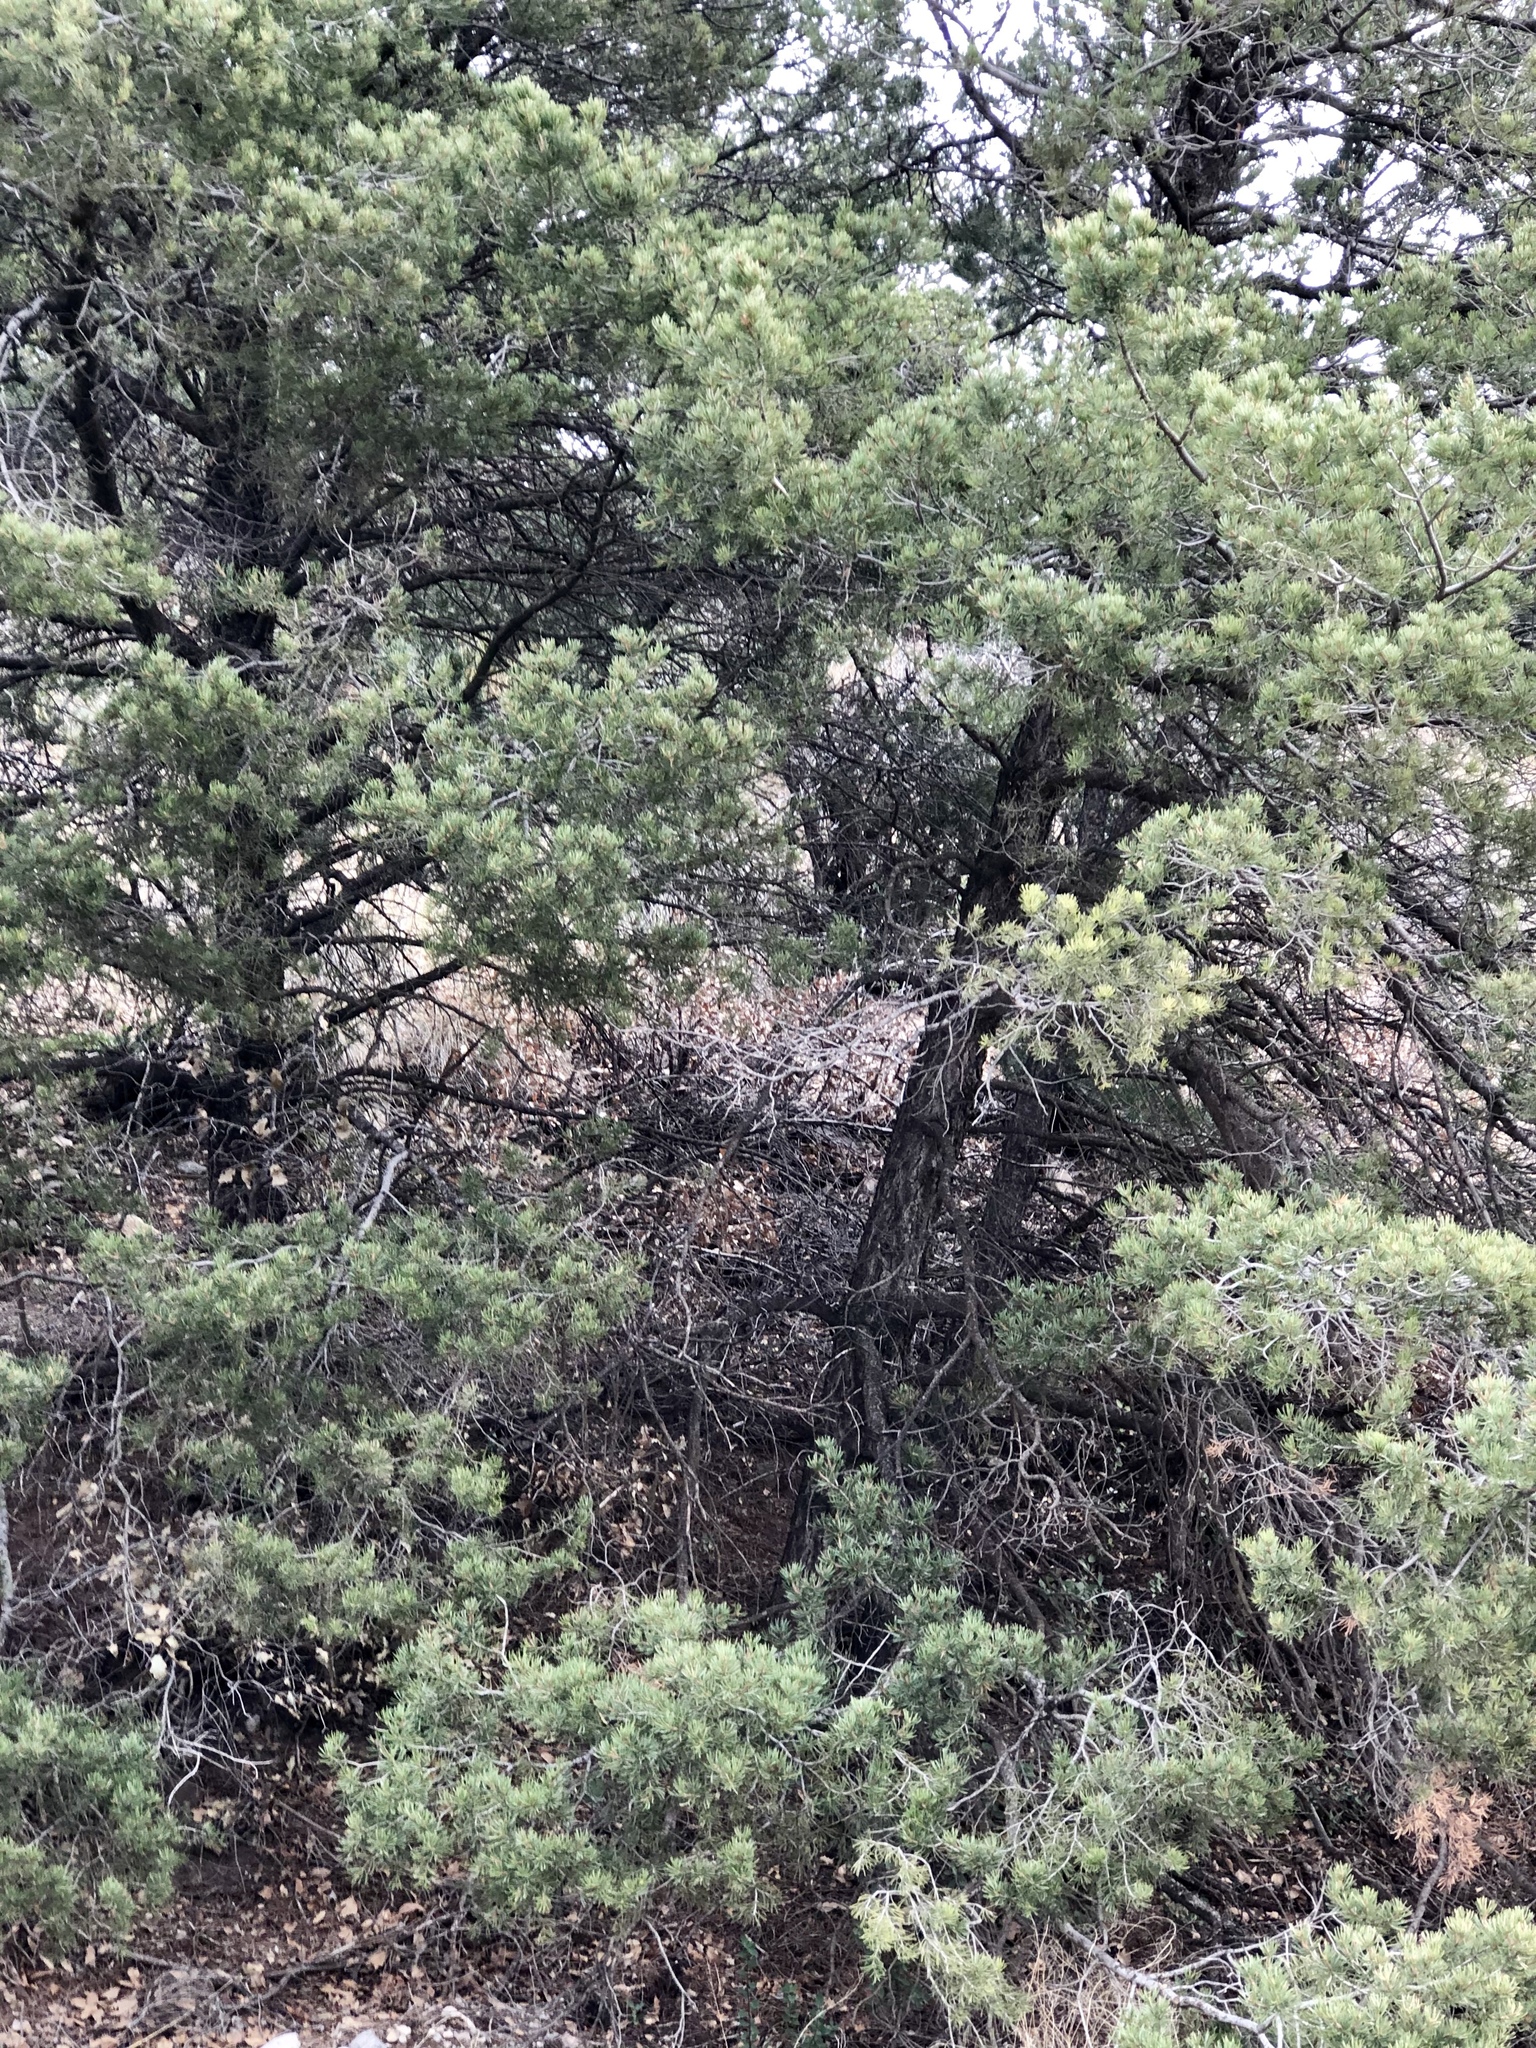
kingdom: Plantae
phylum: Tracheophyta
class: Pinopsida
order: Pinales
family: Pinaceae
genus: Pinus
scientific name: Pinus edulis
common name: Colorado pinyon
